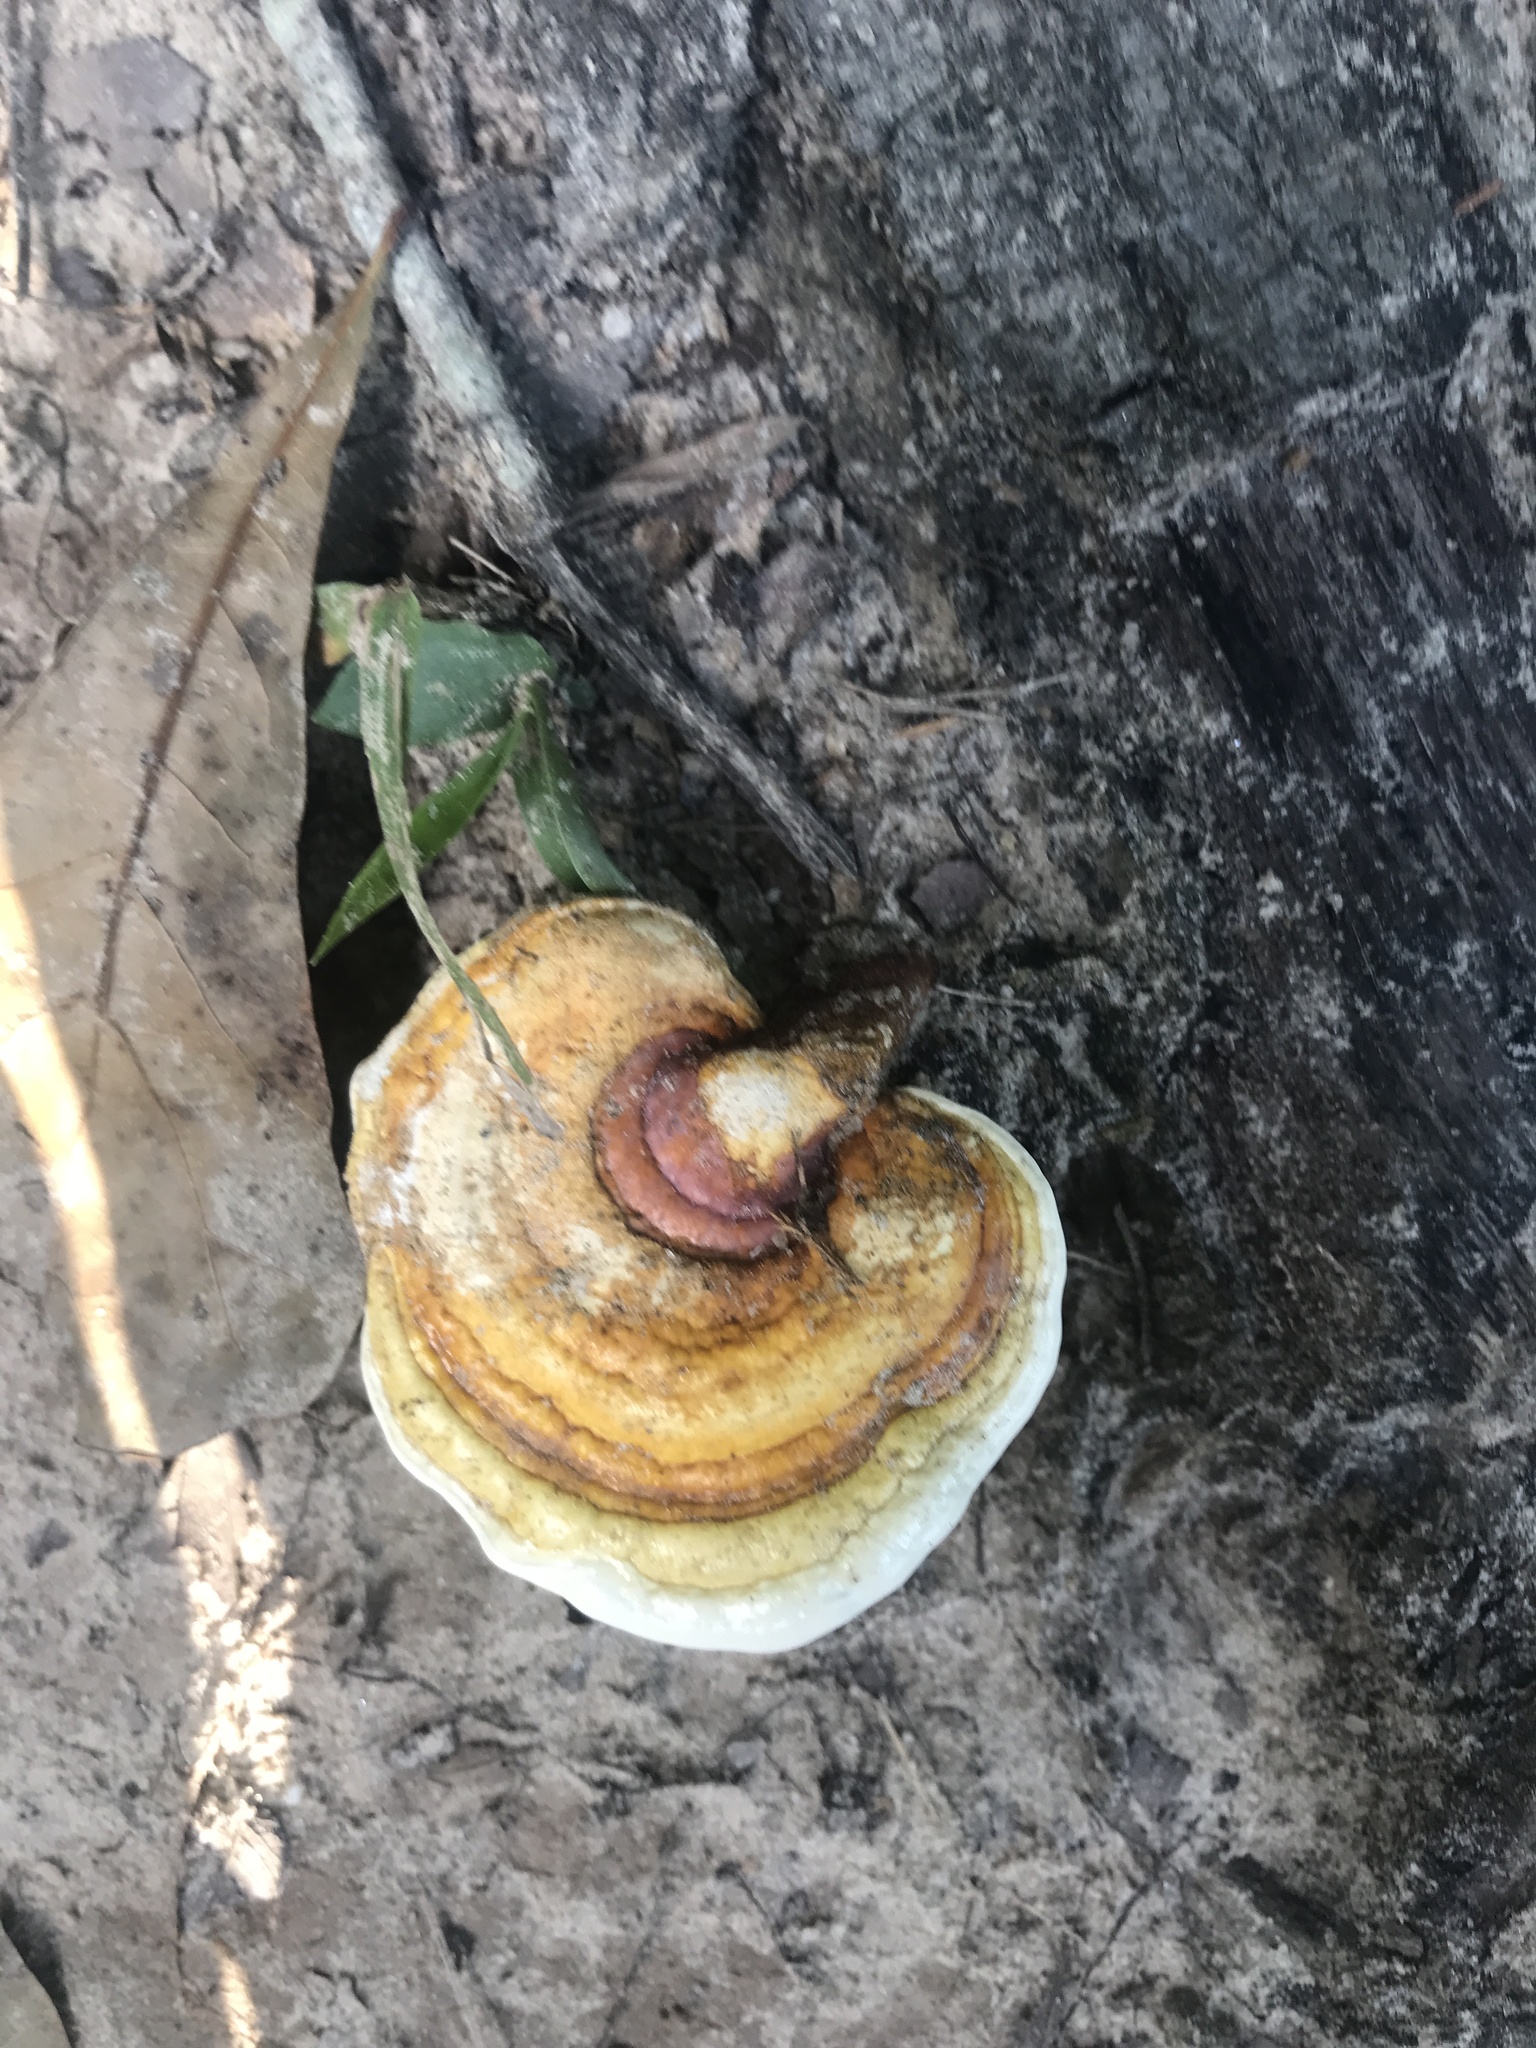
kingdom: Fungi
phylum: Basidiomycota
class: Agaricomycetes
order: Polyporales
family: Polyporaceae
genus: Ganoderma
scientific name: Ganoderma curtisii
